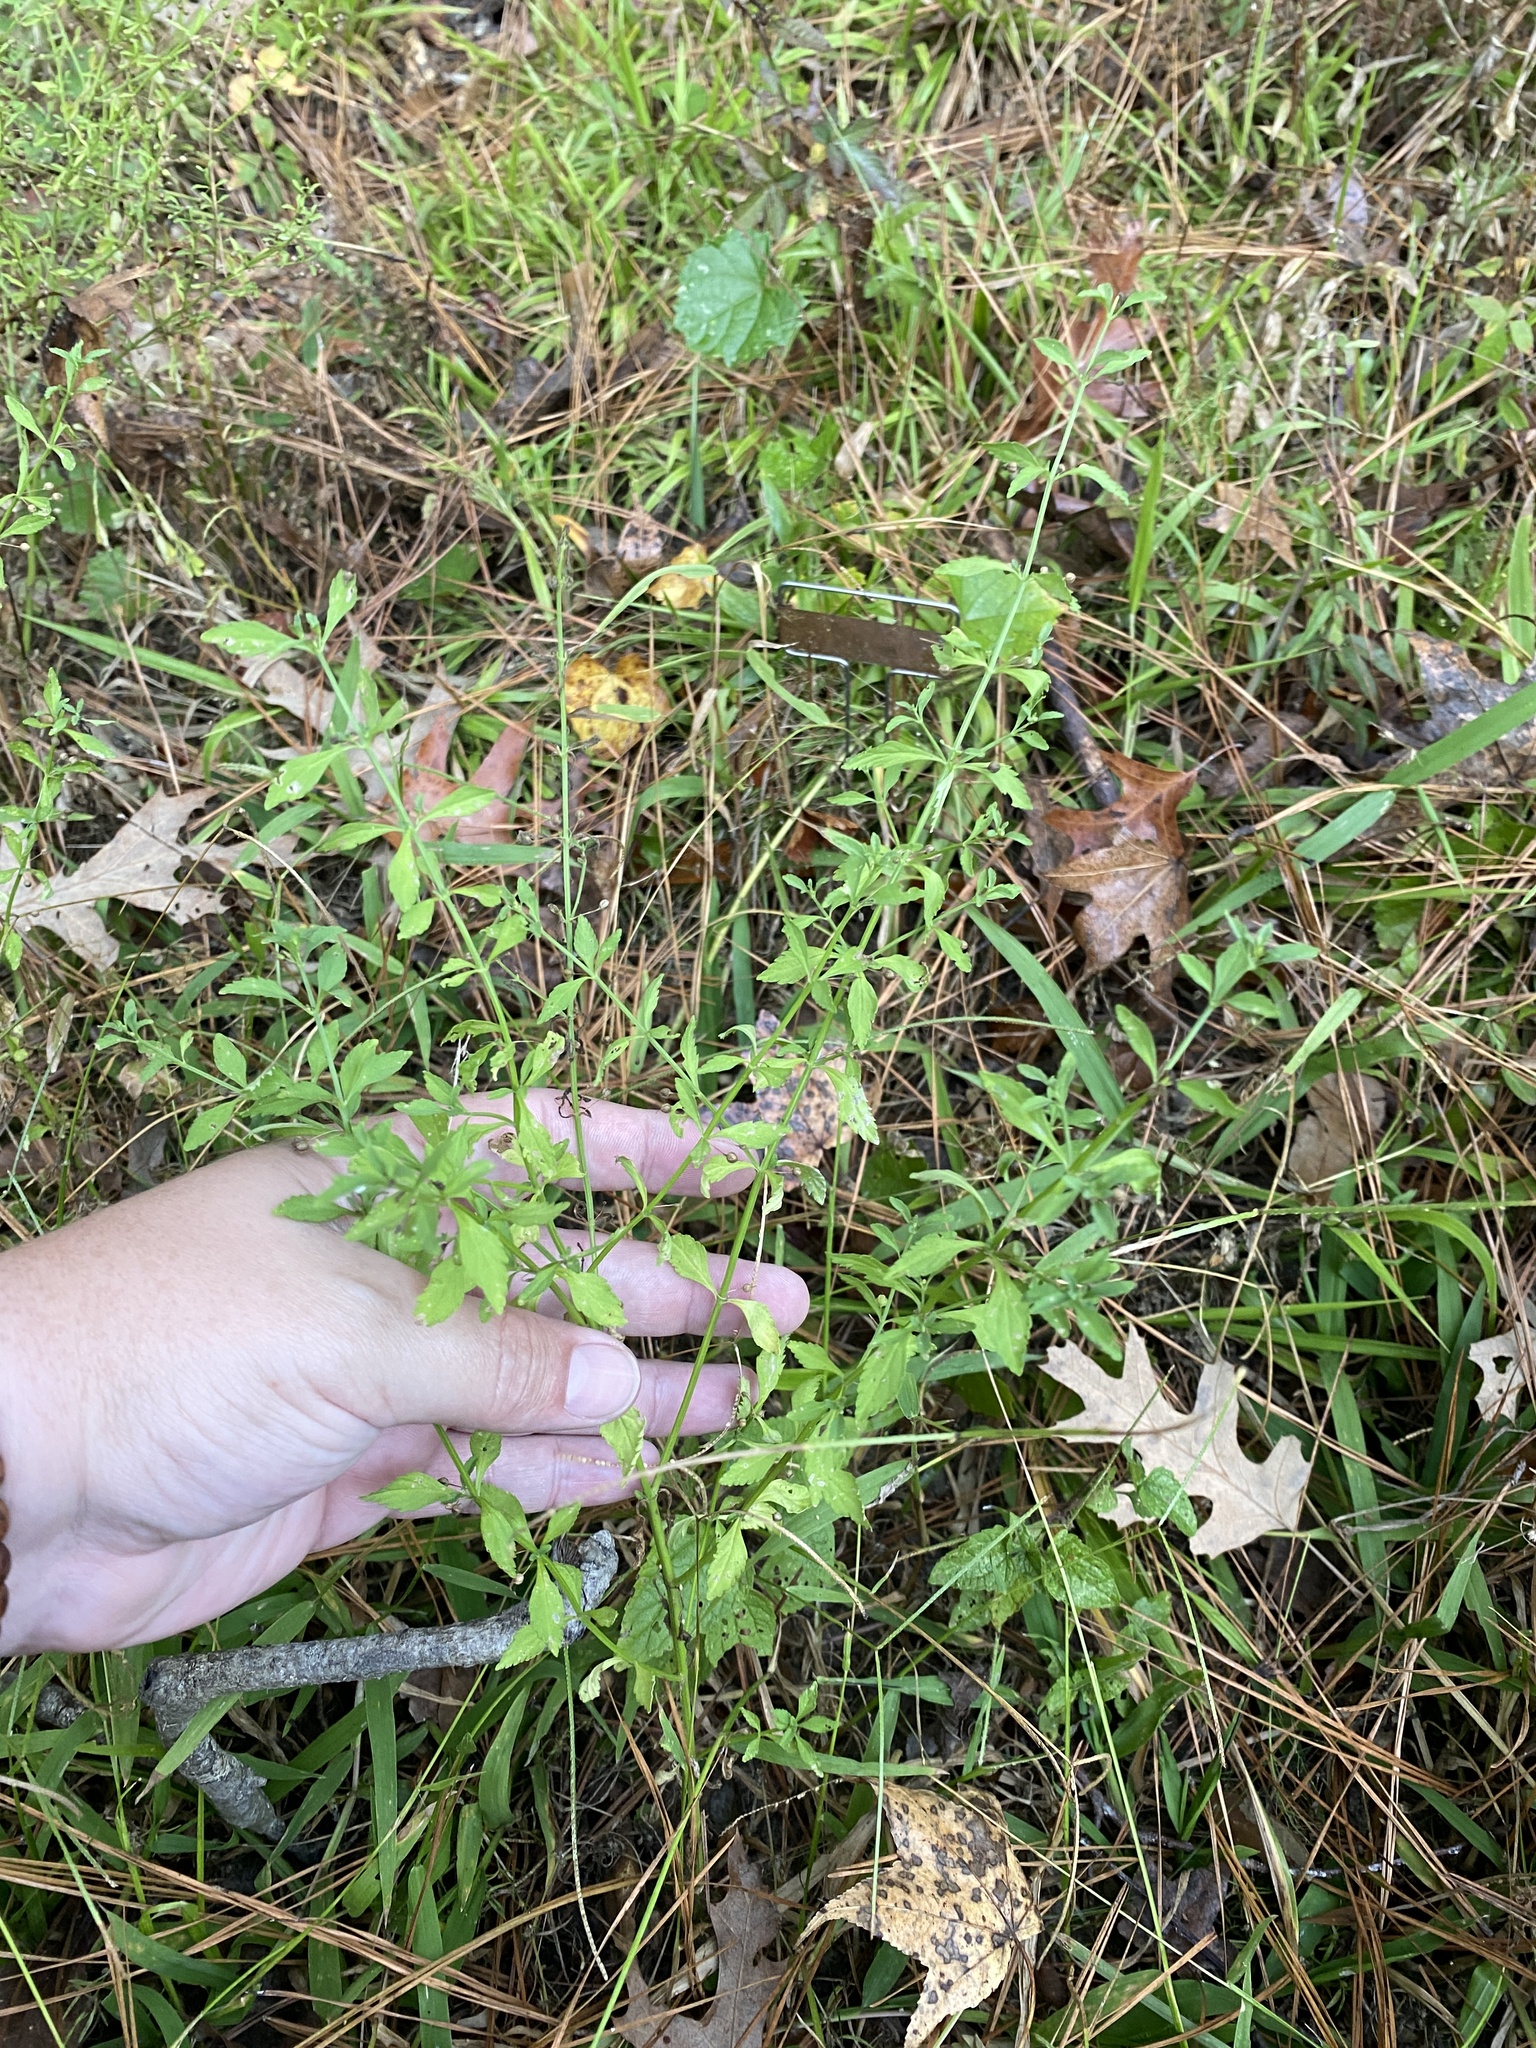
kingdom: Plantae
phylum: Tracheophyta
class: Magnoliopsida
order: Lamiales
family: Plantaginaceae
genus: Scoparia
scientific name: Scoparia dulcis
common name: Scoparia-weed
